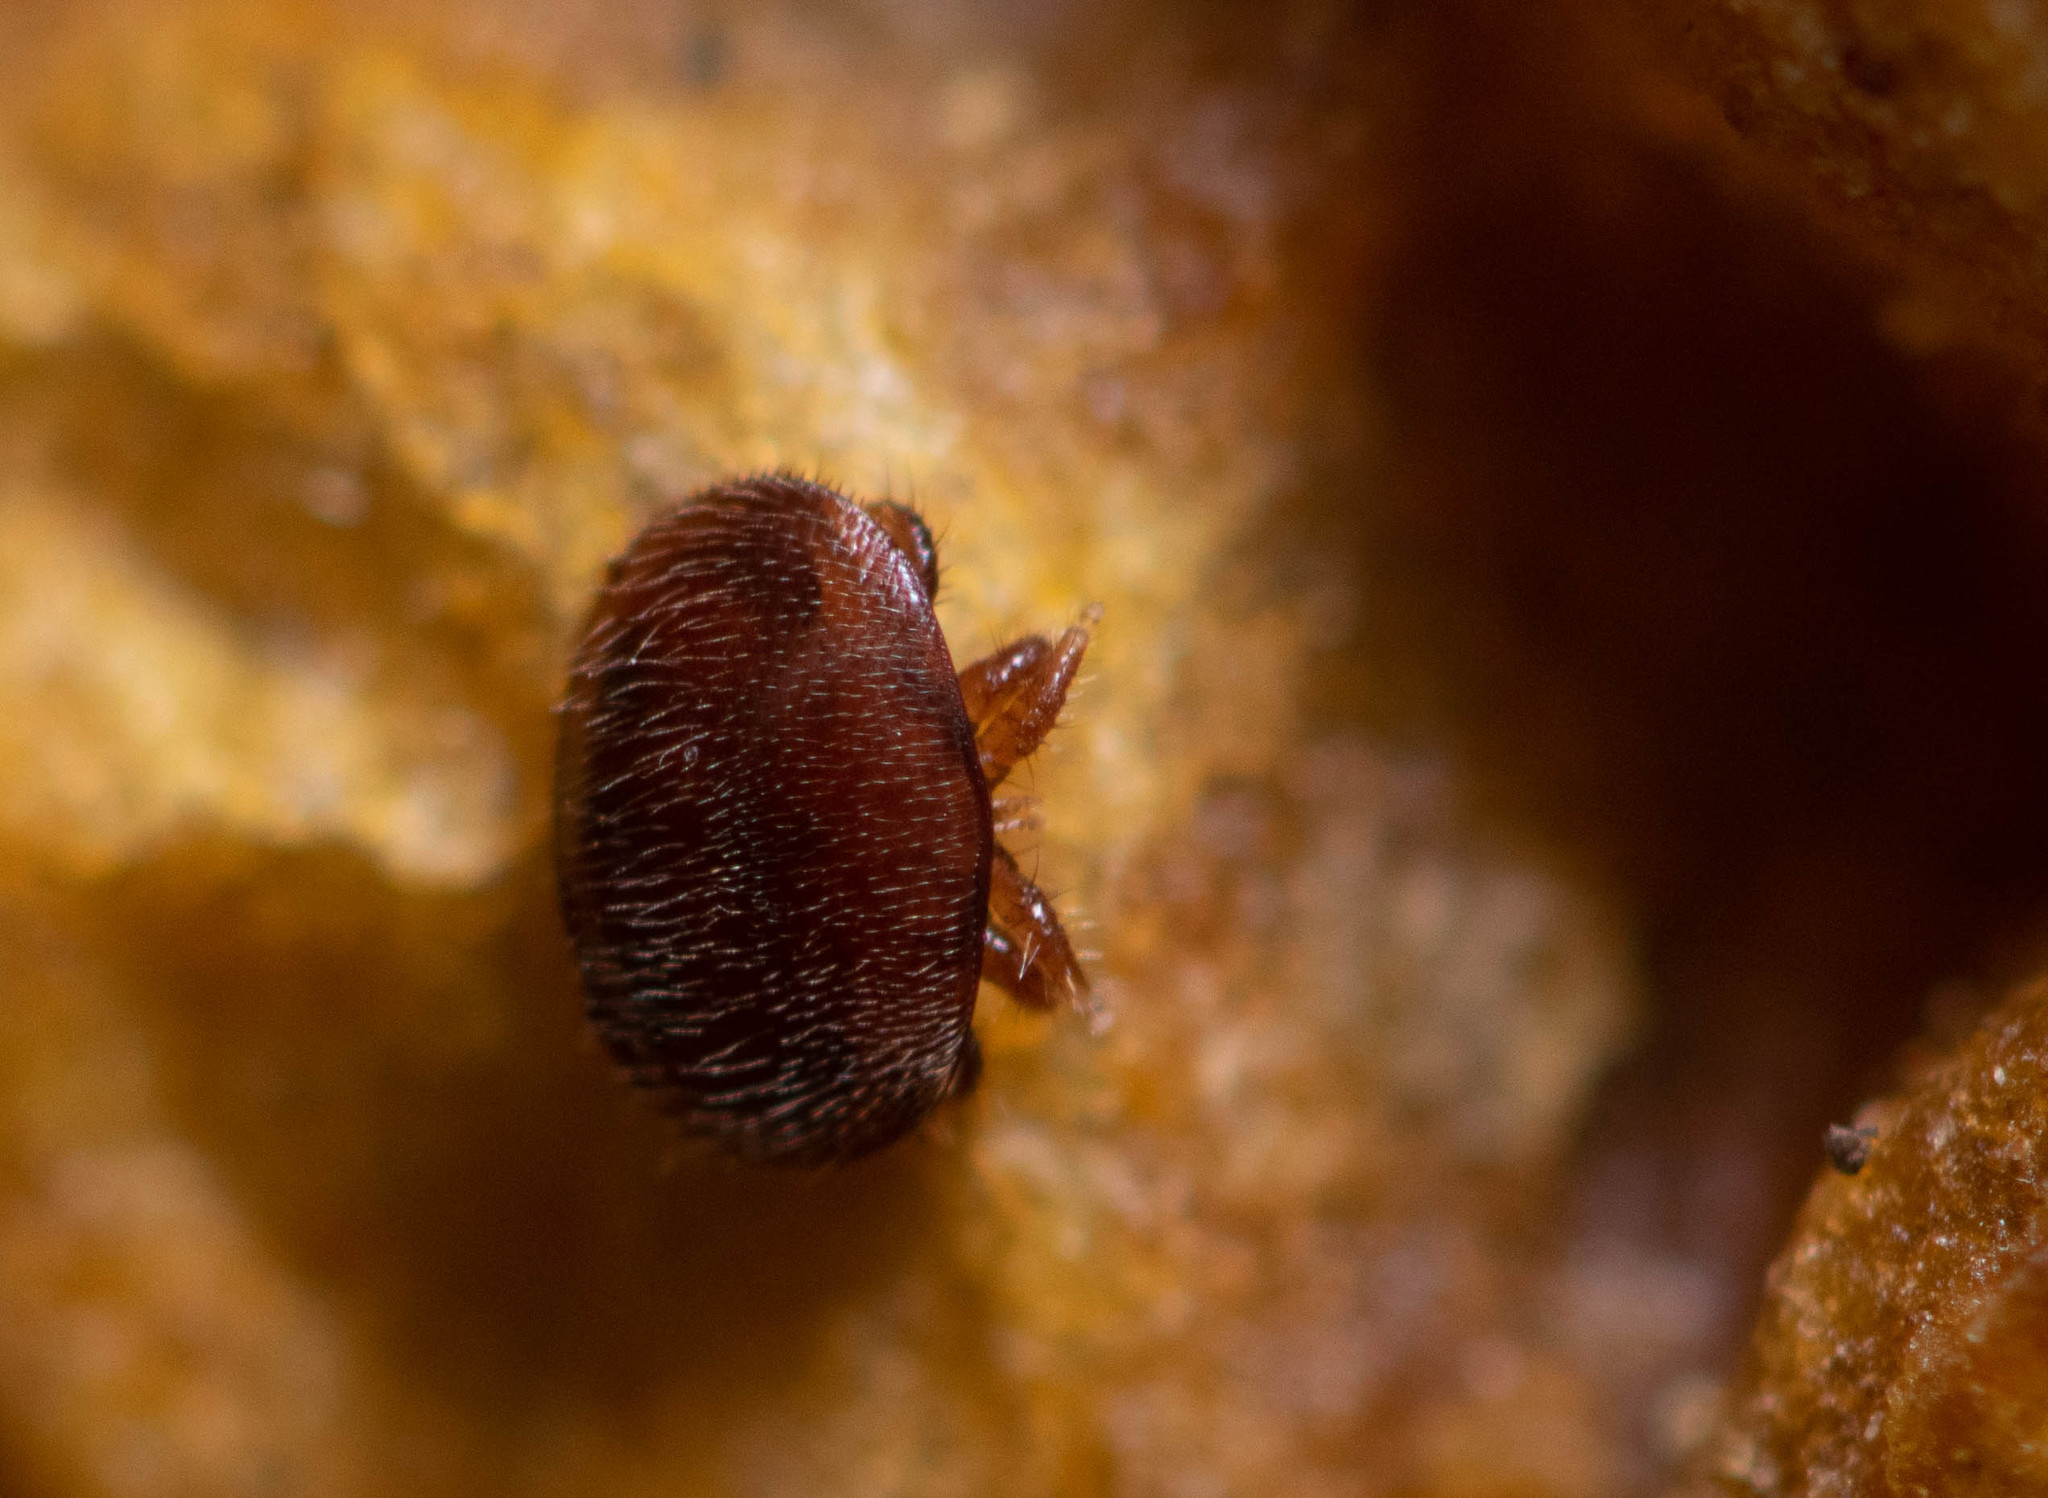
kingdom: Animalia
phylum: Arthropoda
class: Arachnida
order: Mesostigmata
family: Varroidae
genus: Varroa
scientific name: Varroa destructor
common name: Honey bee mite
